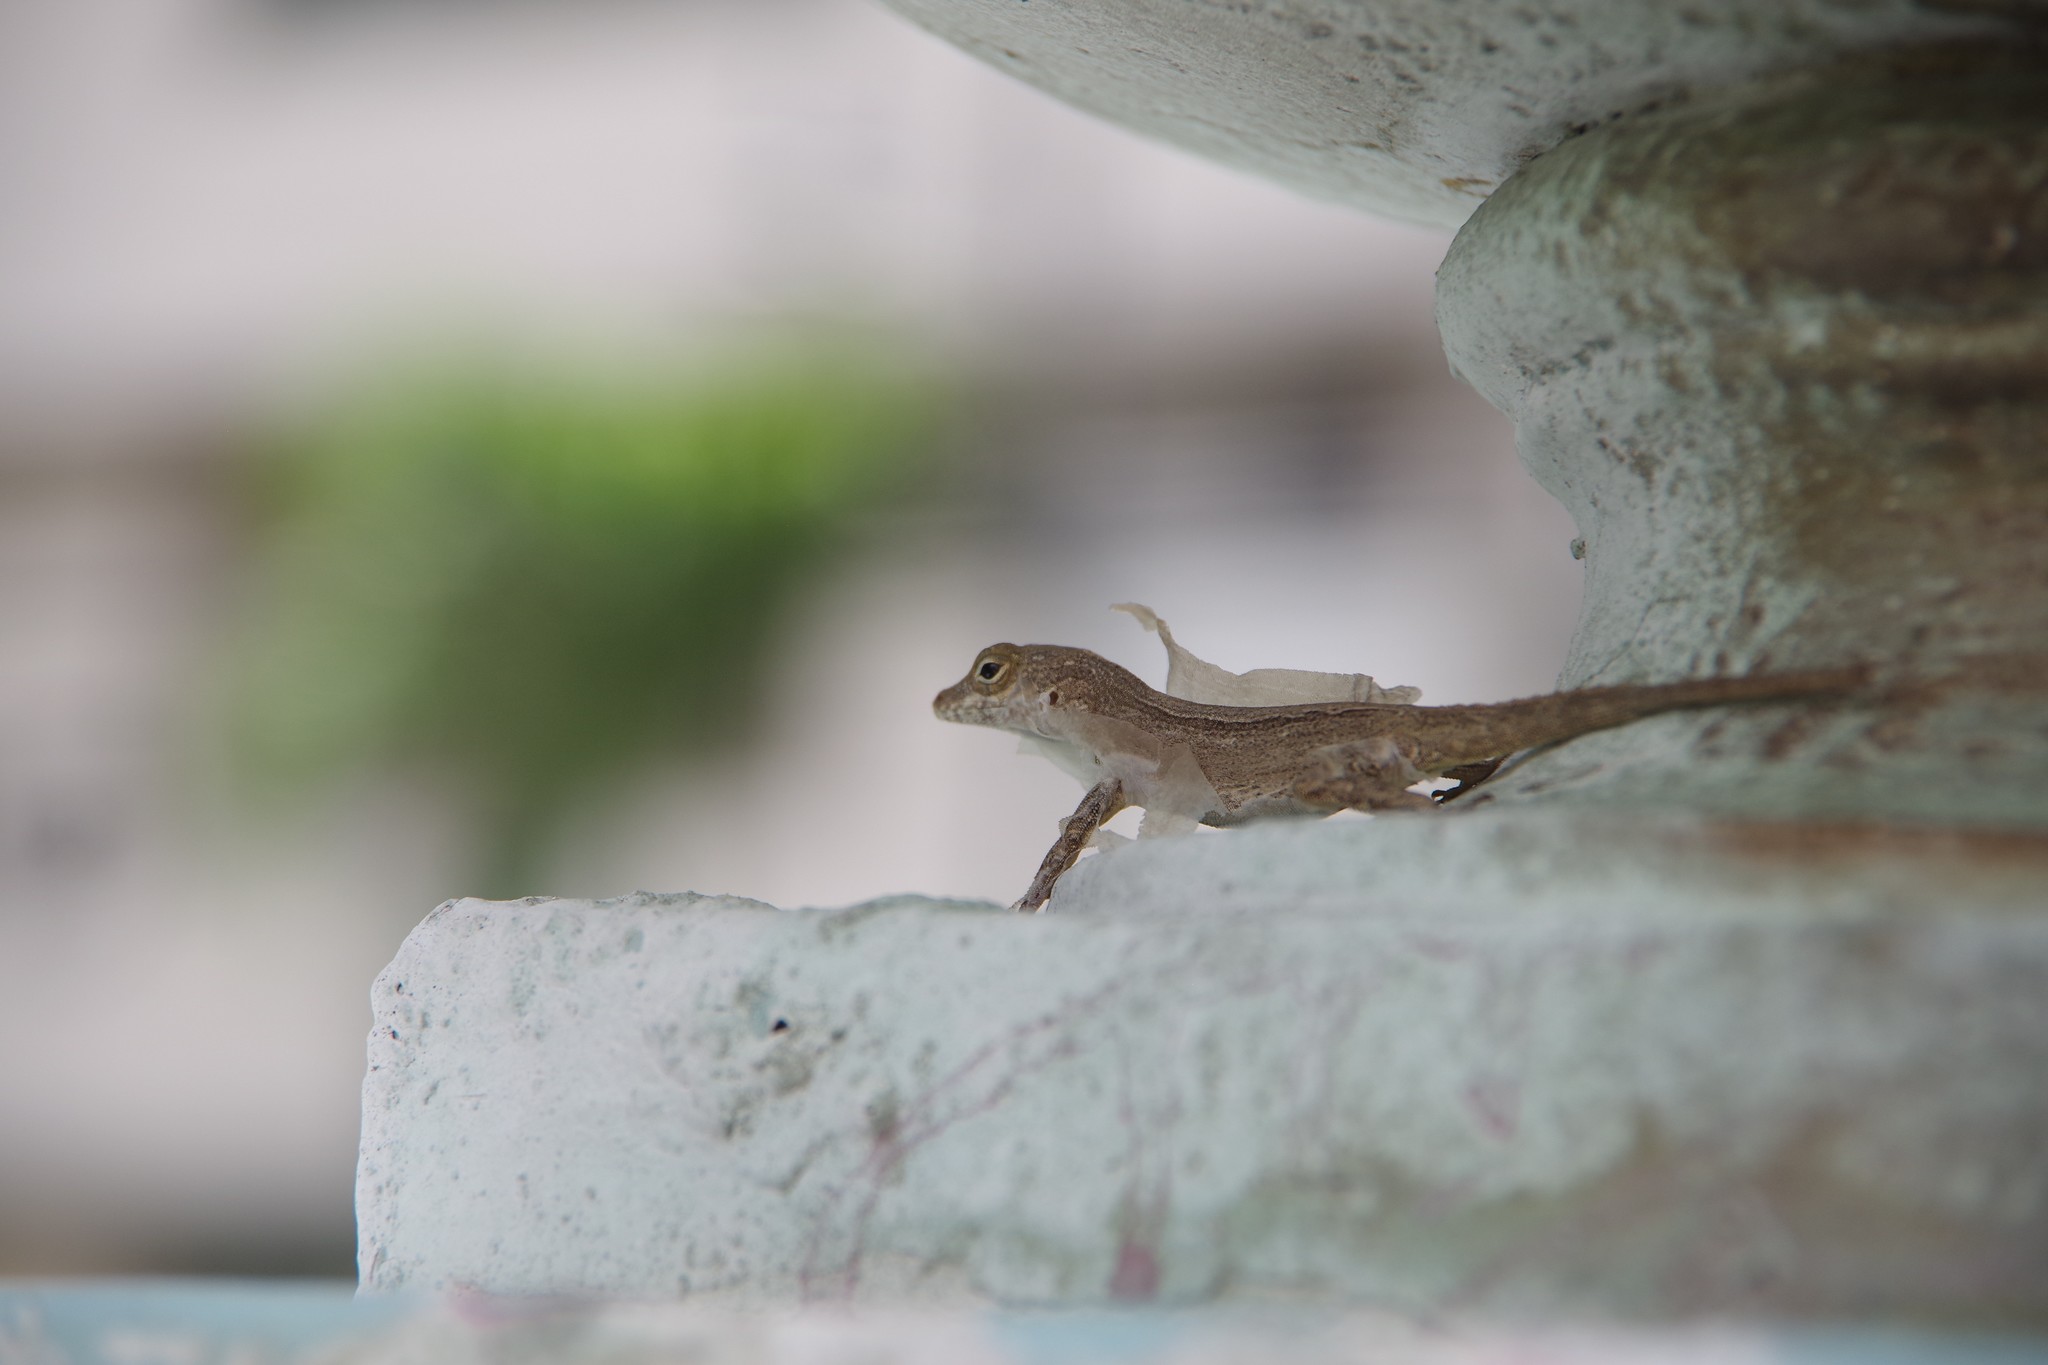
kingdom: Animalia
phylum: Chordata
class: Squamata
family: Dactyloidae
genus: Anolis
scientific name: Anolis cristatellus
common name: Crested anole
